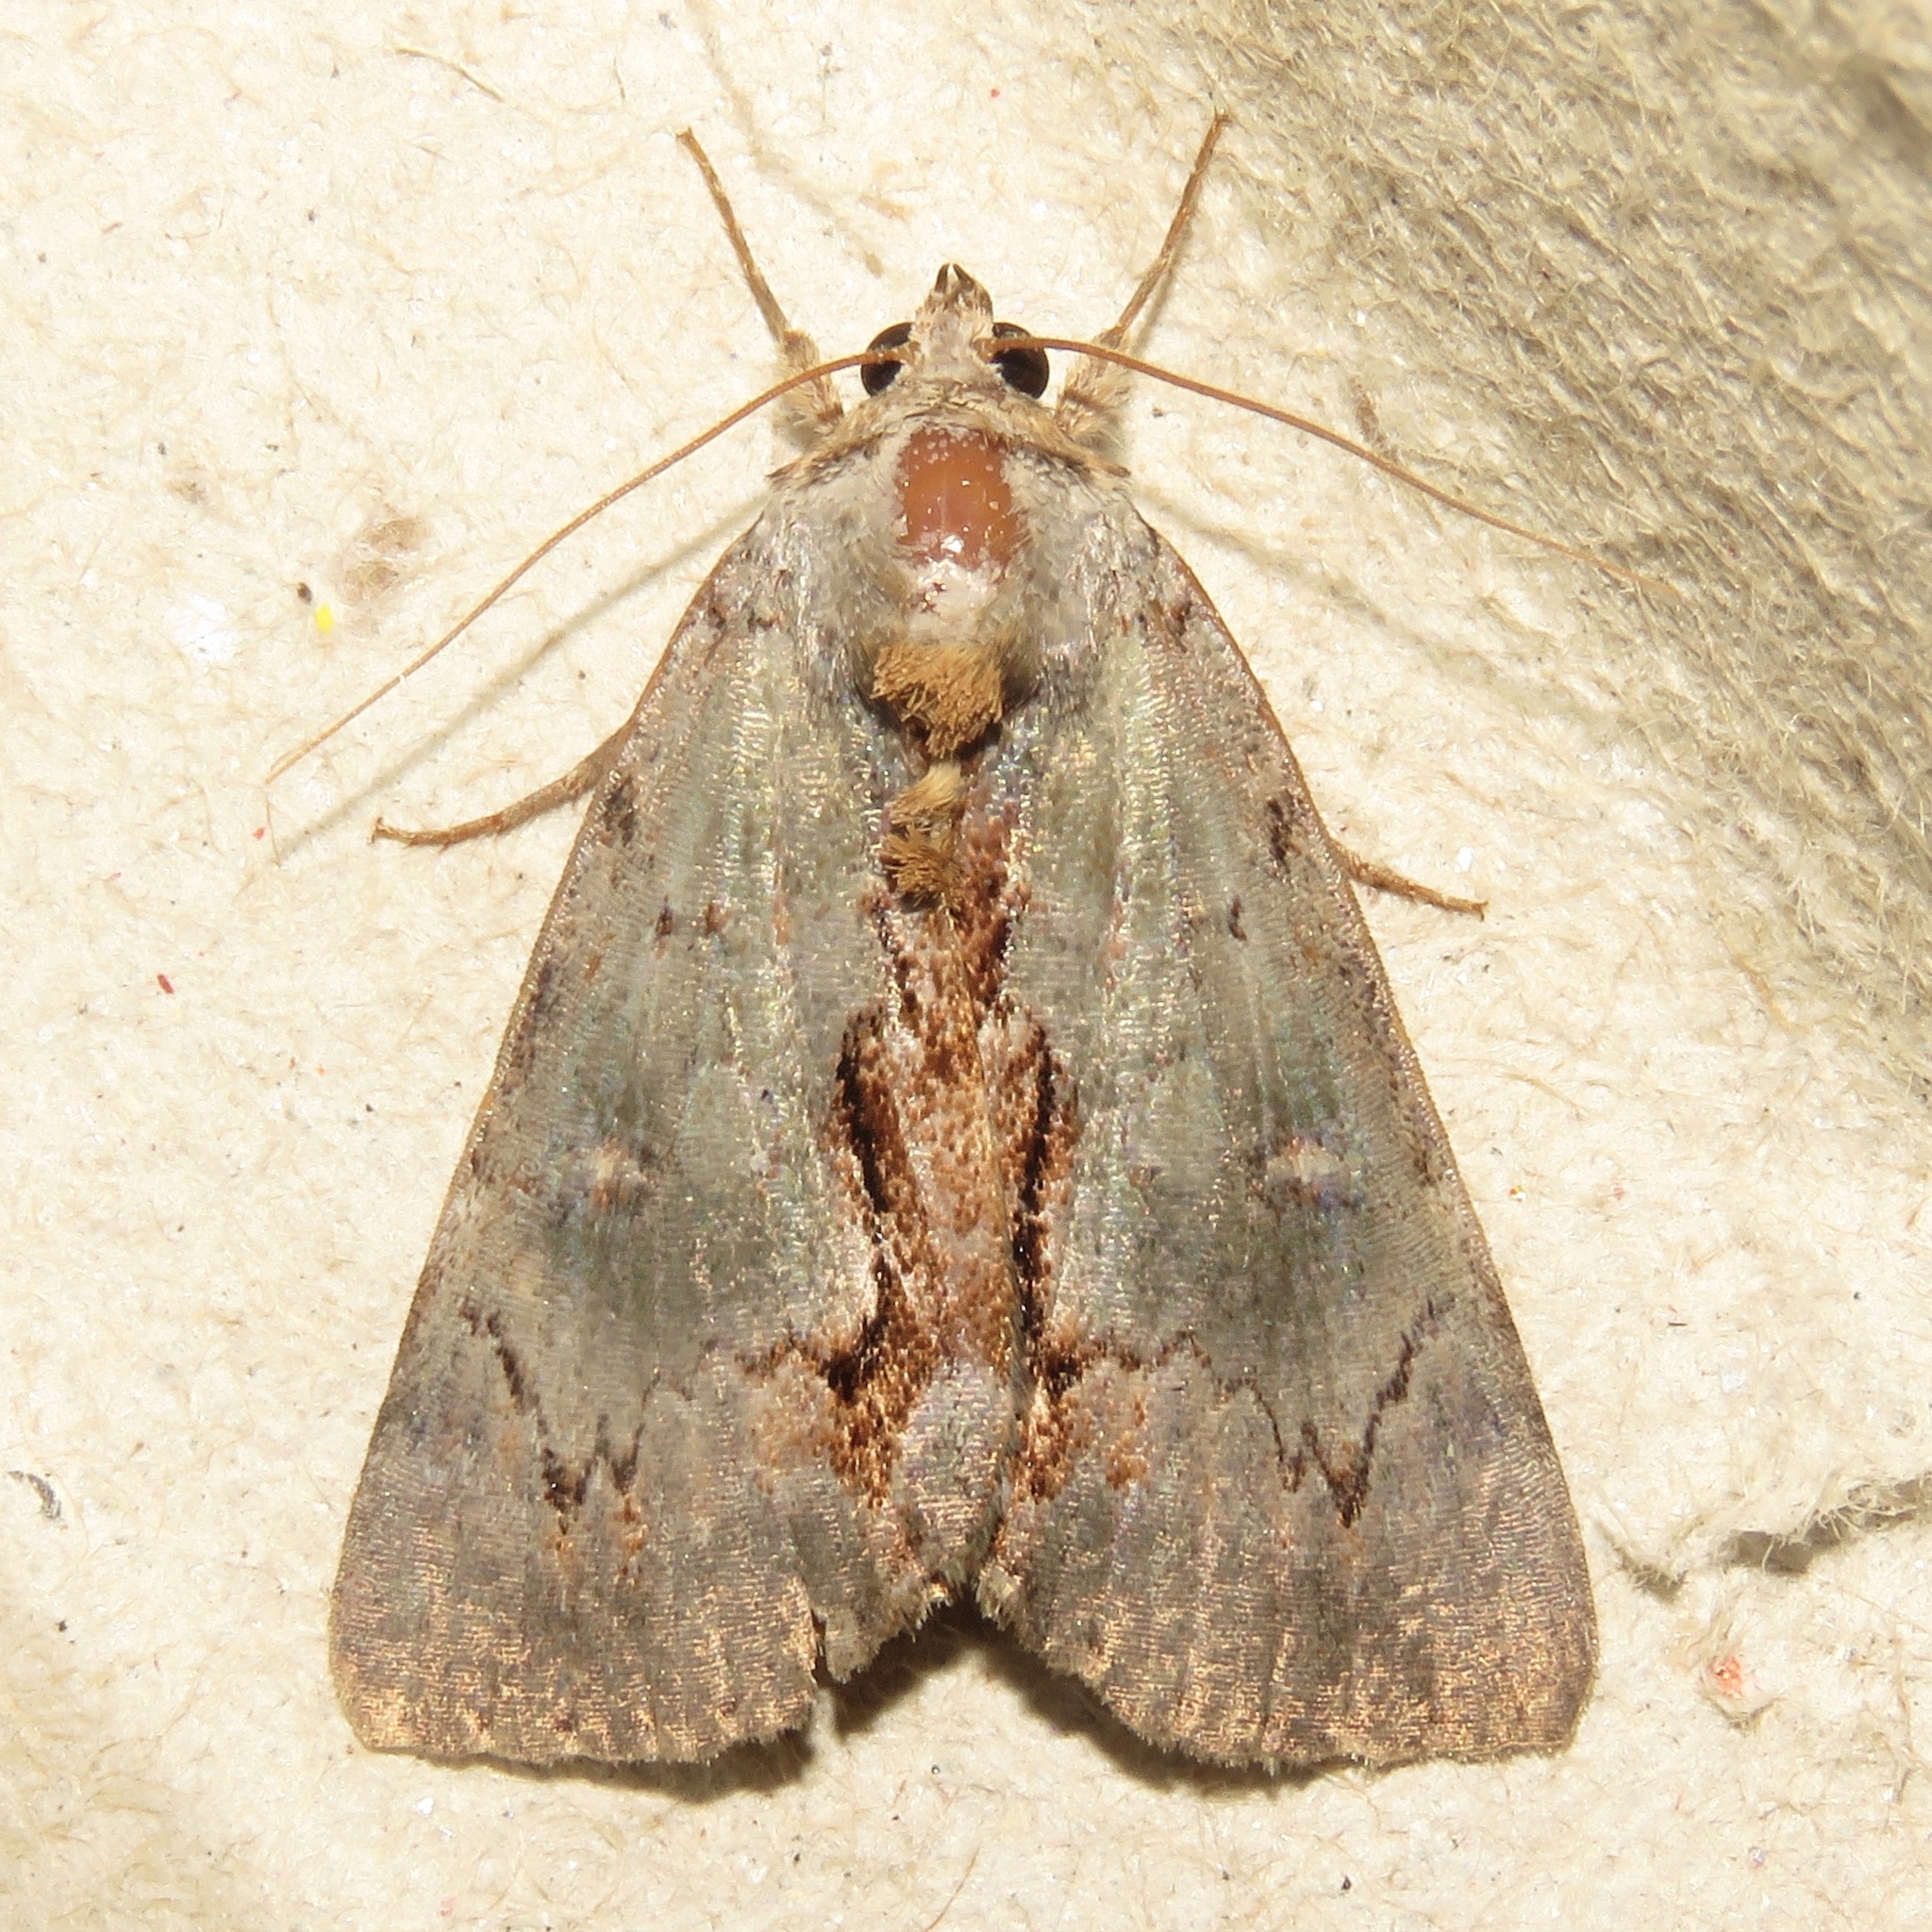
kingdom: Animalia
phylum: Arthropoda
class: Insecta
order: Lepidoptera
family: Erebidae
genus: Catocala
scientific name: Catocala grynea
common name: Woody underwing
